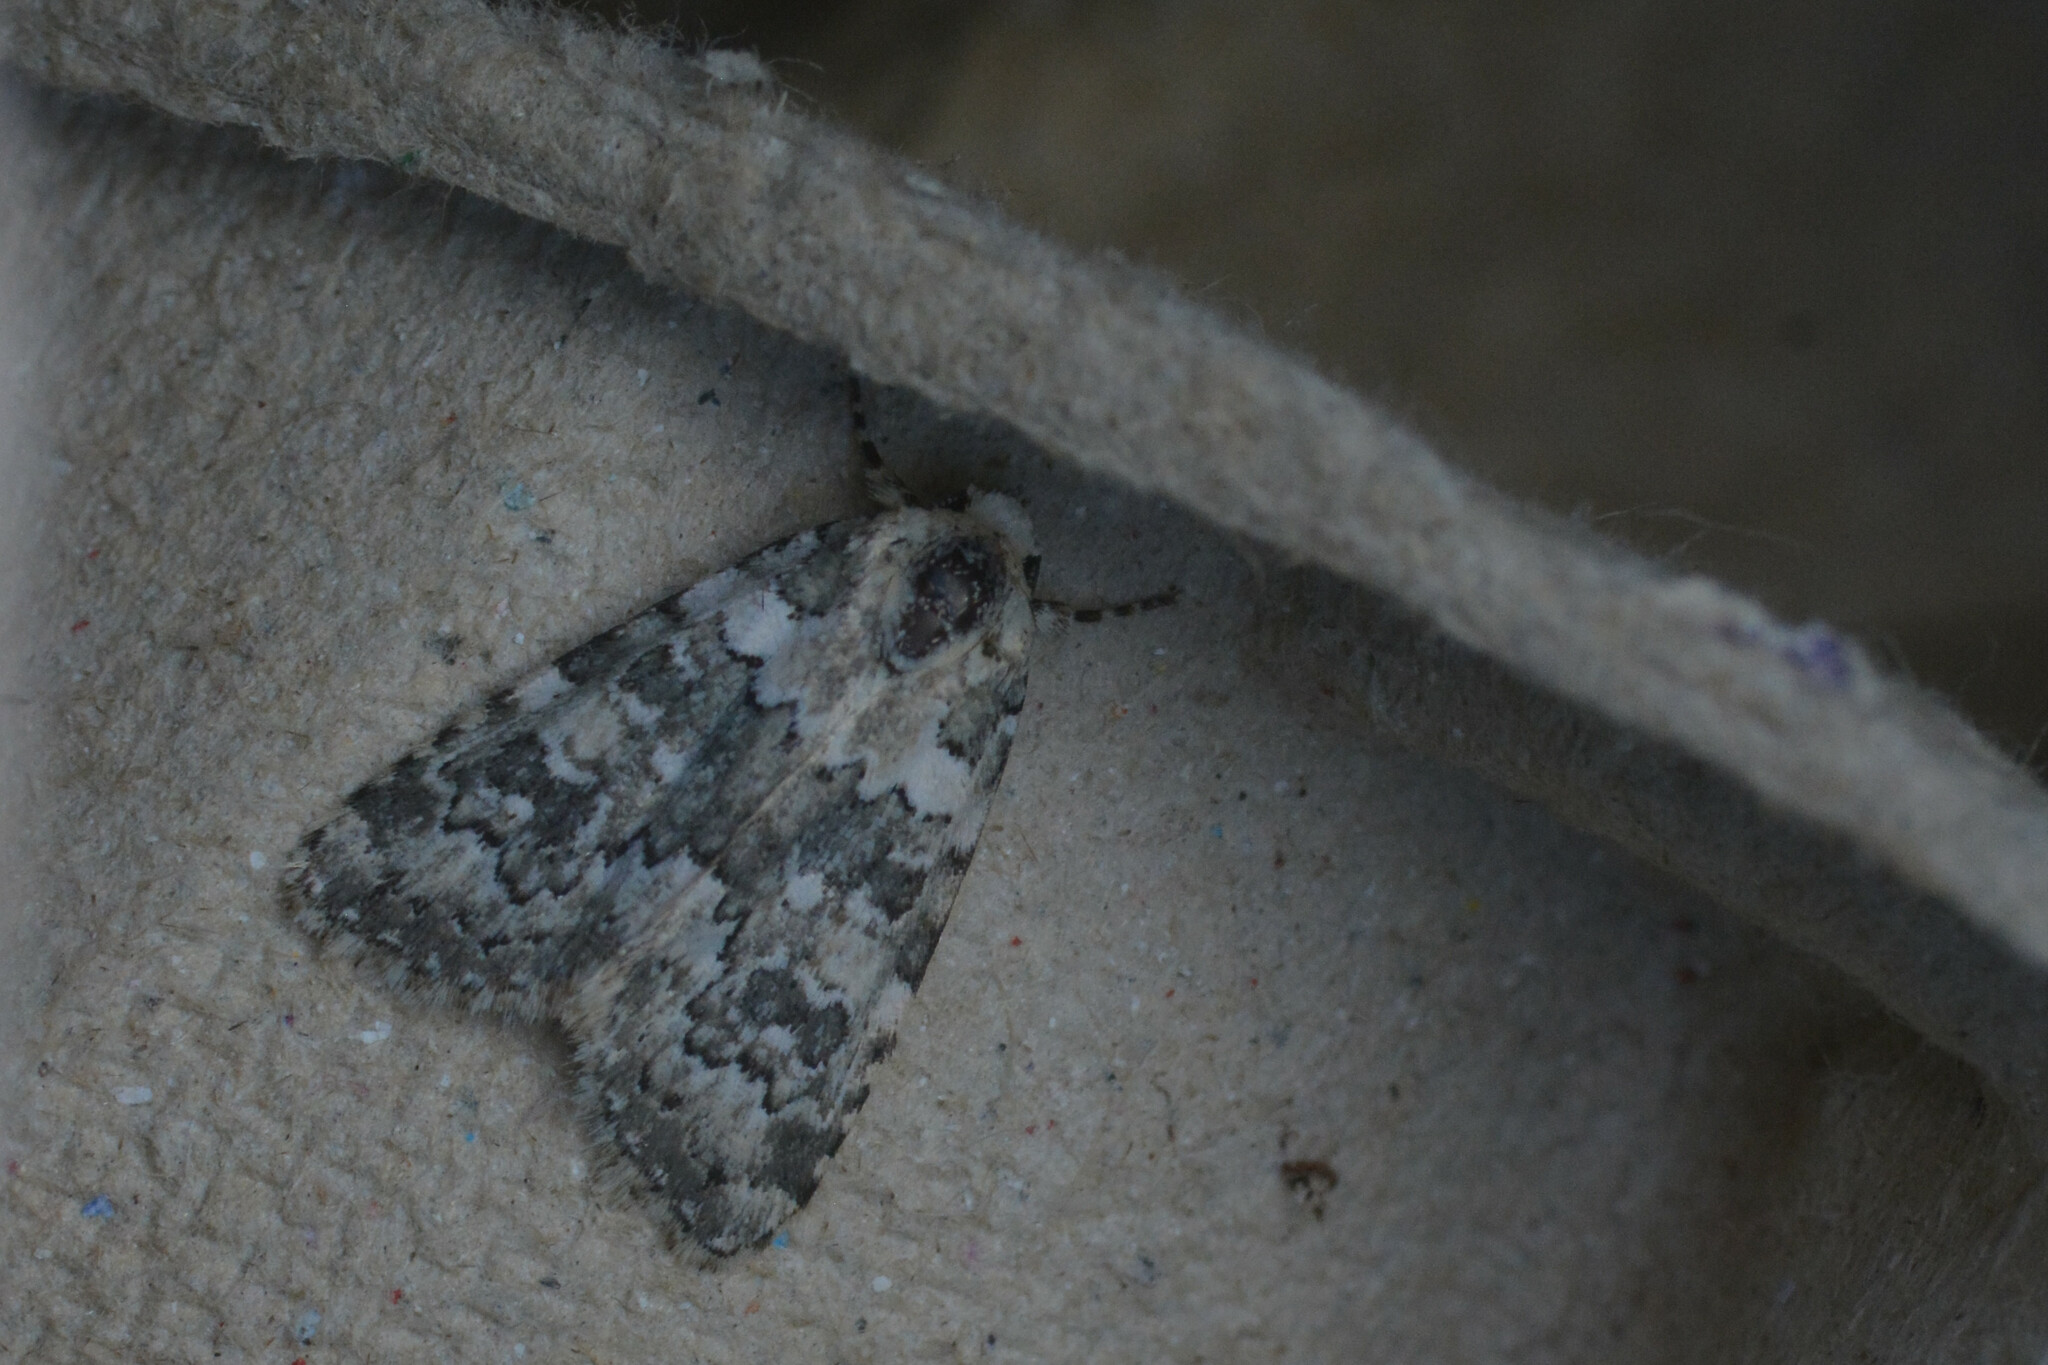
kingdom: Animalia
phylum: Arthropoda
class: Insecta
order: Lepidoptera
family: Noctuidae
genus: Bryophila
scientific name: Bryophila domestica
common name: Marbled beauty
